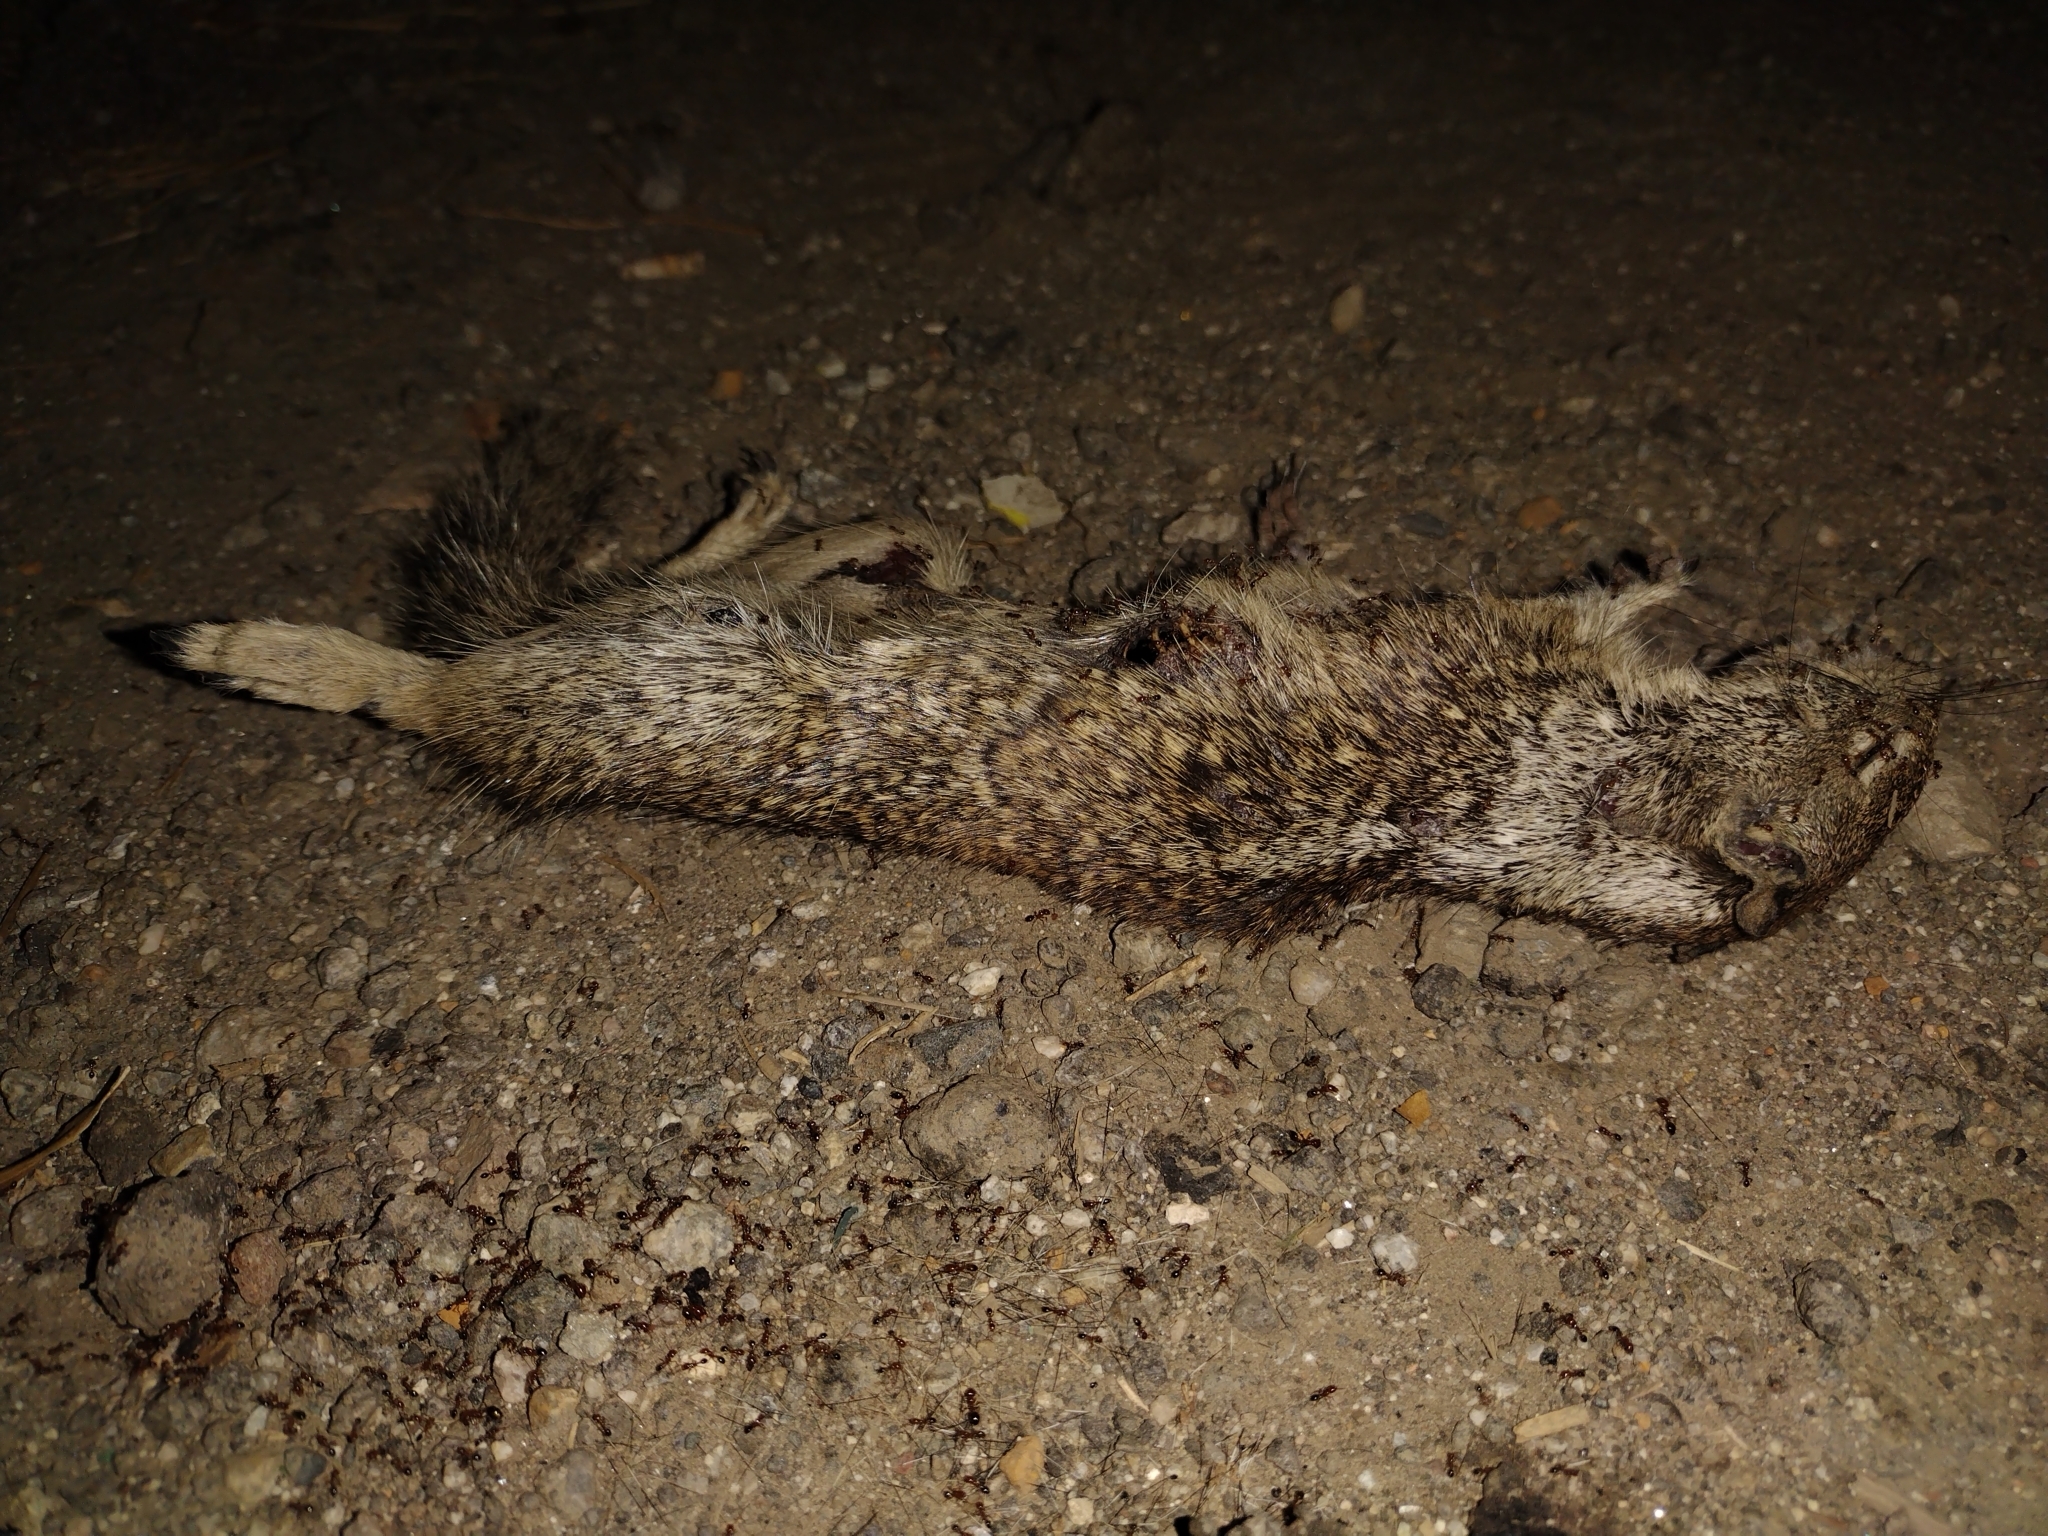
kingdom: Animalia
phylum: Chordata
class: Mammalia
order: Rodentia
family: Sciuridae
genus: Otospermophilus
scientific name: Otospermophilus beecheyi
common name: California ground squirrel
